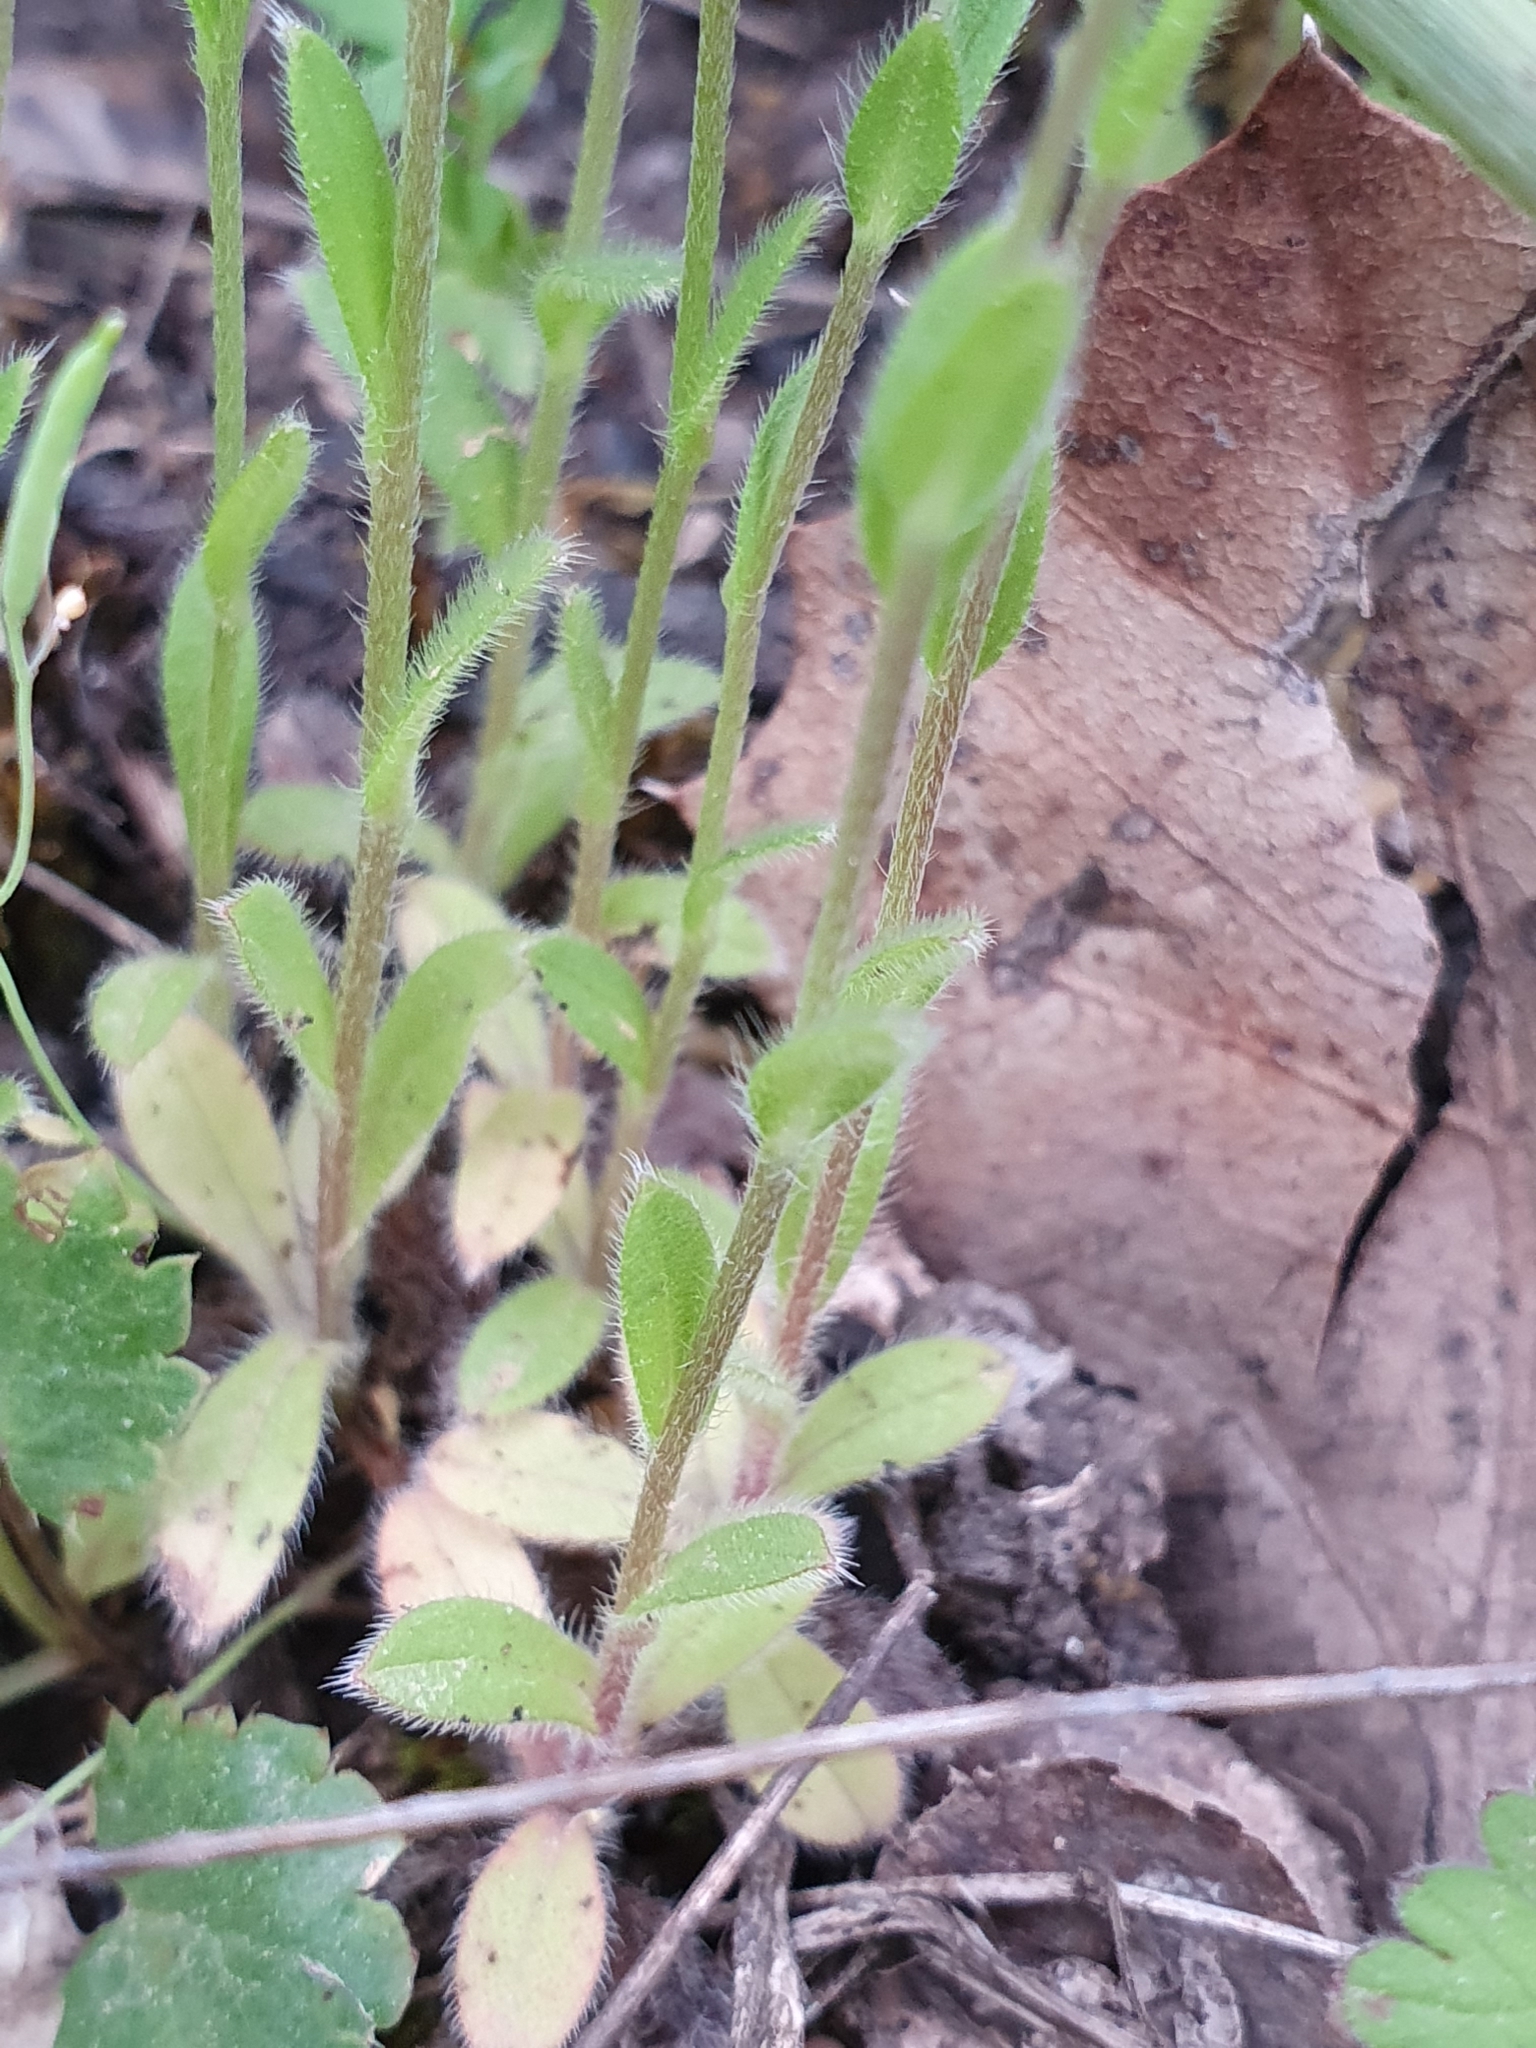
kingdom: Plantae
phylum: Tracheophyta
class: Magnoliopsida
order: Boraginales
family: Boraginaceae
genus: Myosotis
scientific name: Myosotis stricta
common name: Strict forget-me-not
